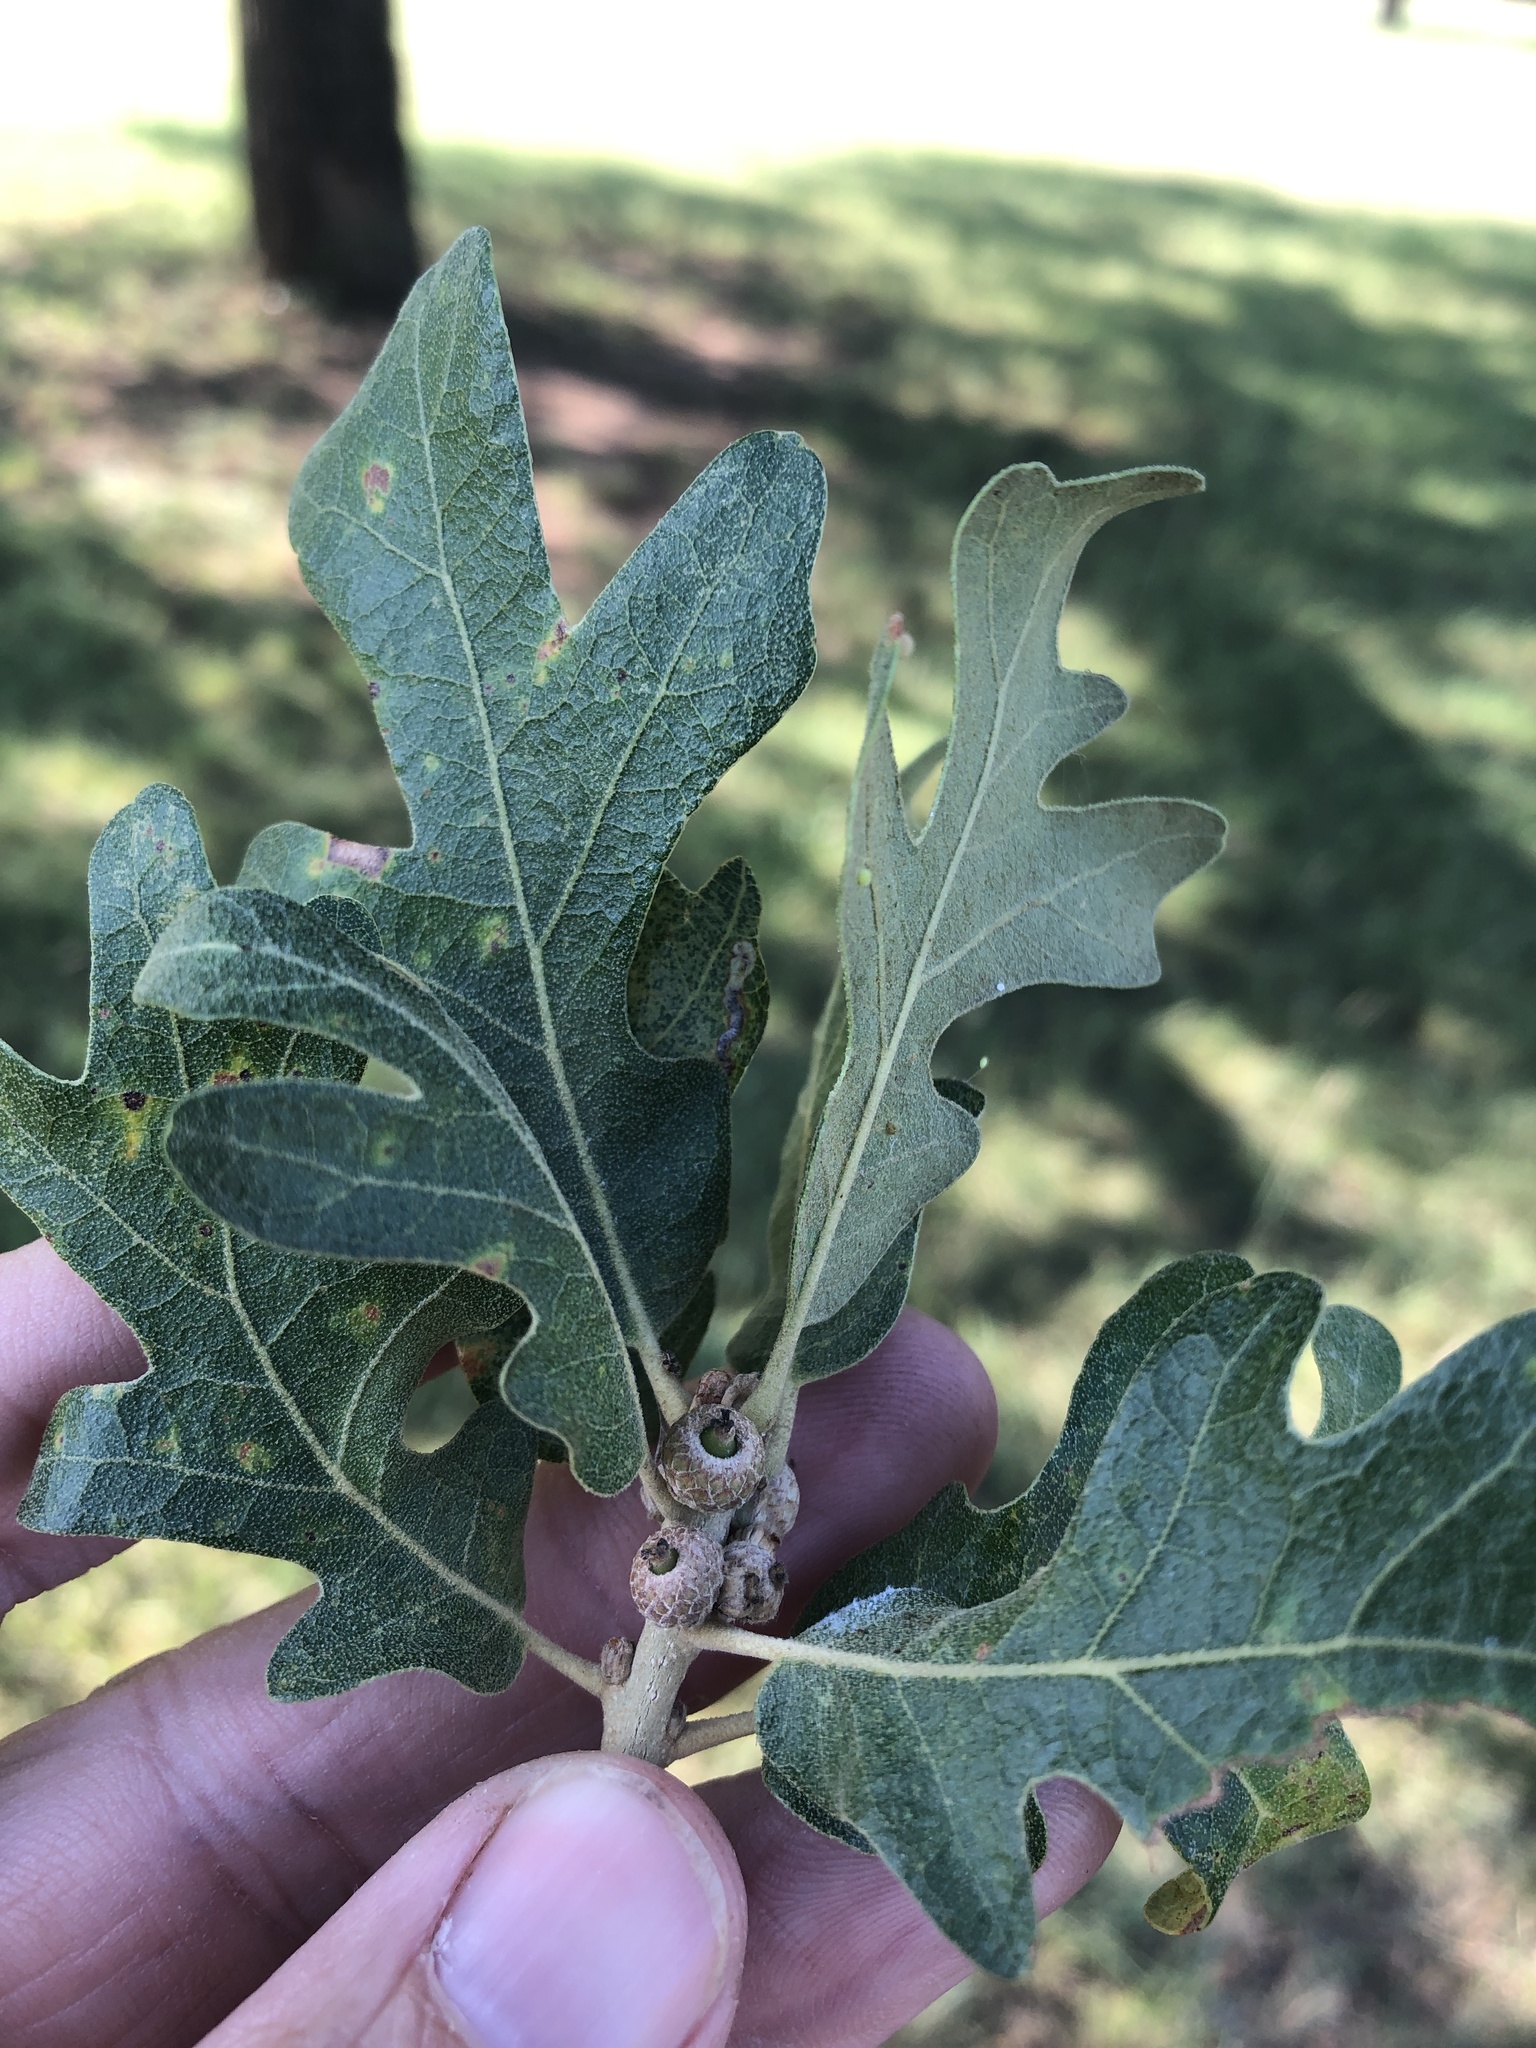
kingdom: Plantae
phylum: Tracheophyta
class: Magnoliopsida
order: Fagales
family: Fagaceae
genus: Quercus
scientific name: Quercus stellata
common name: Post oak
